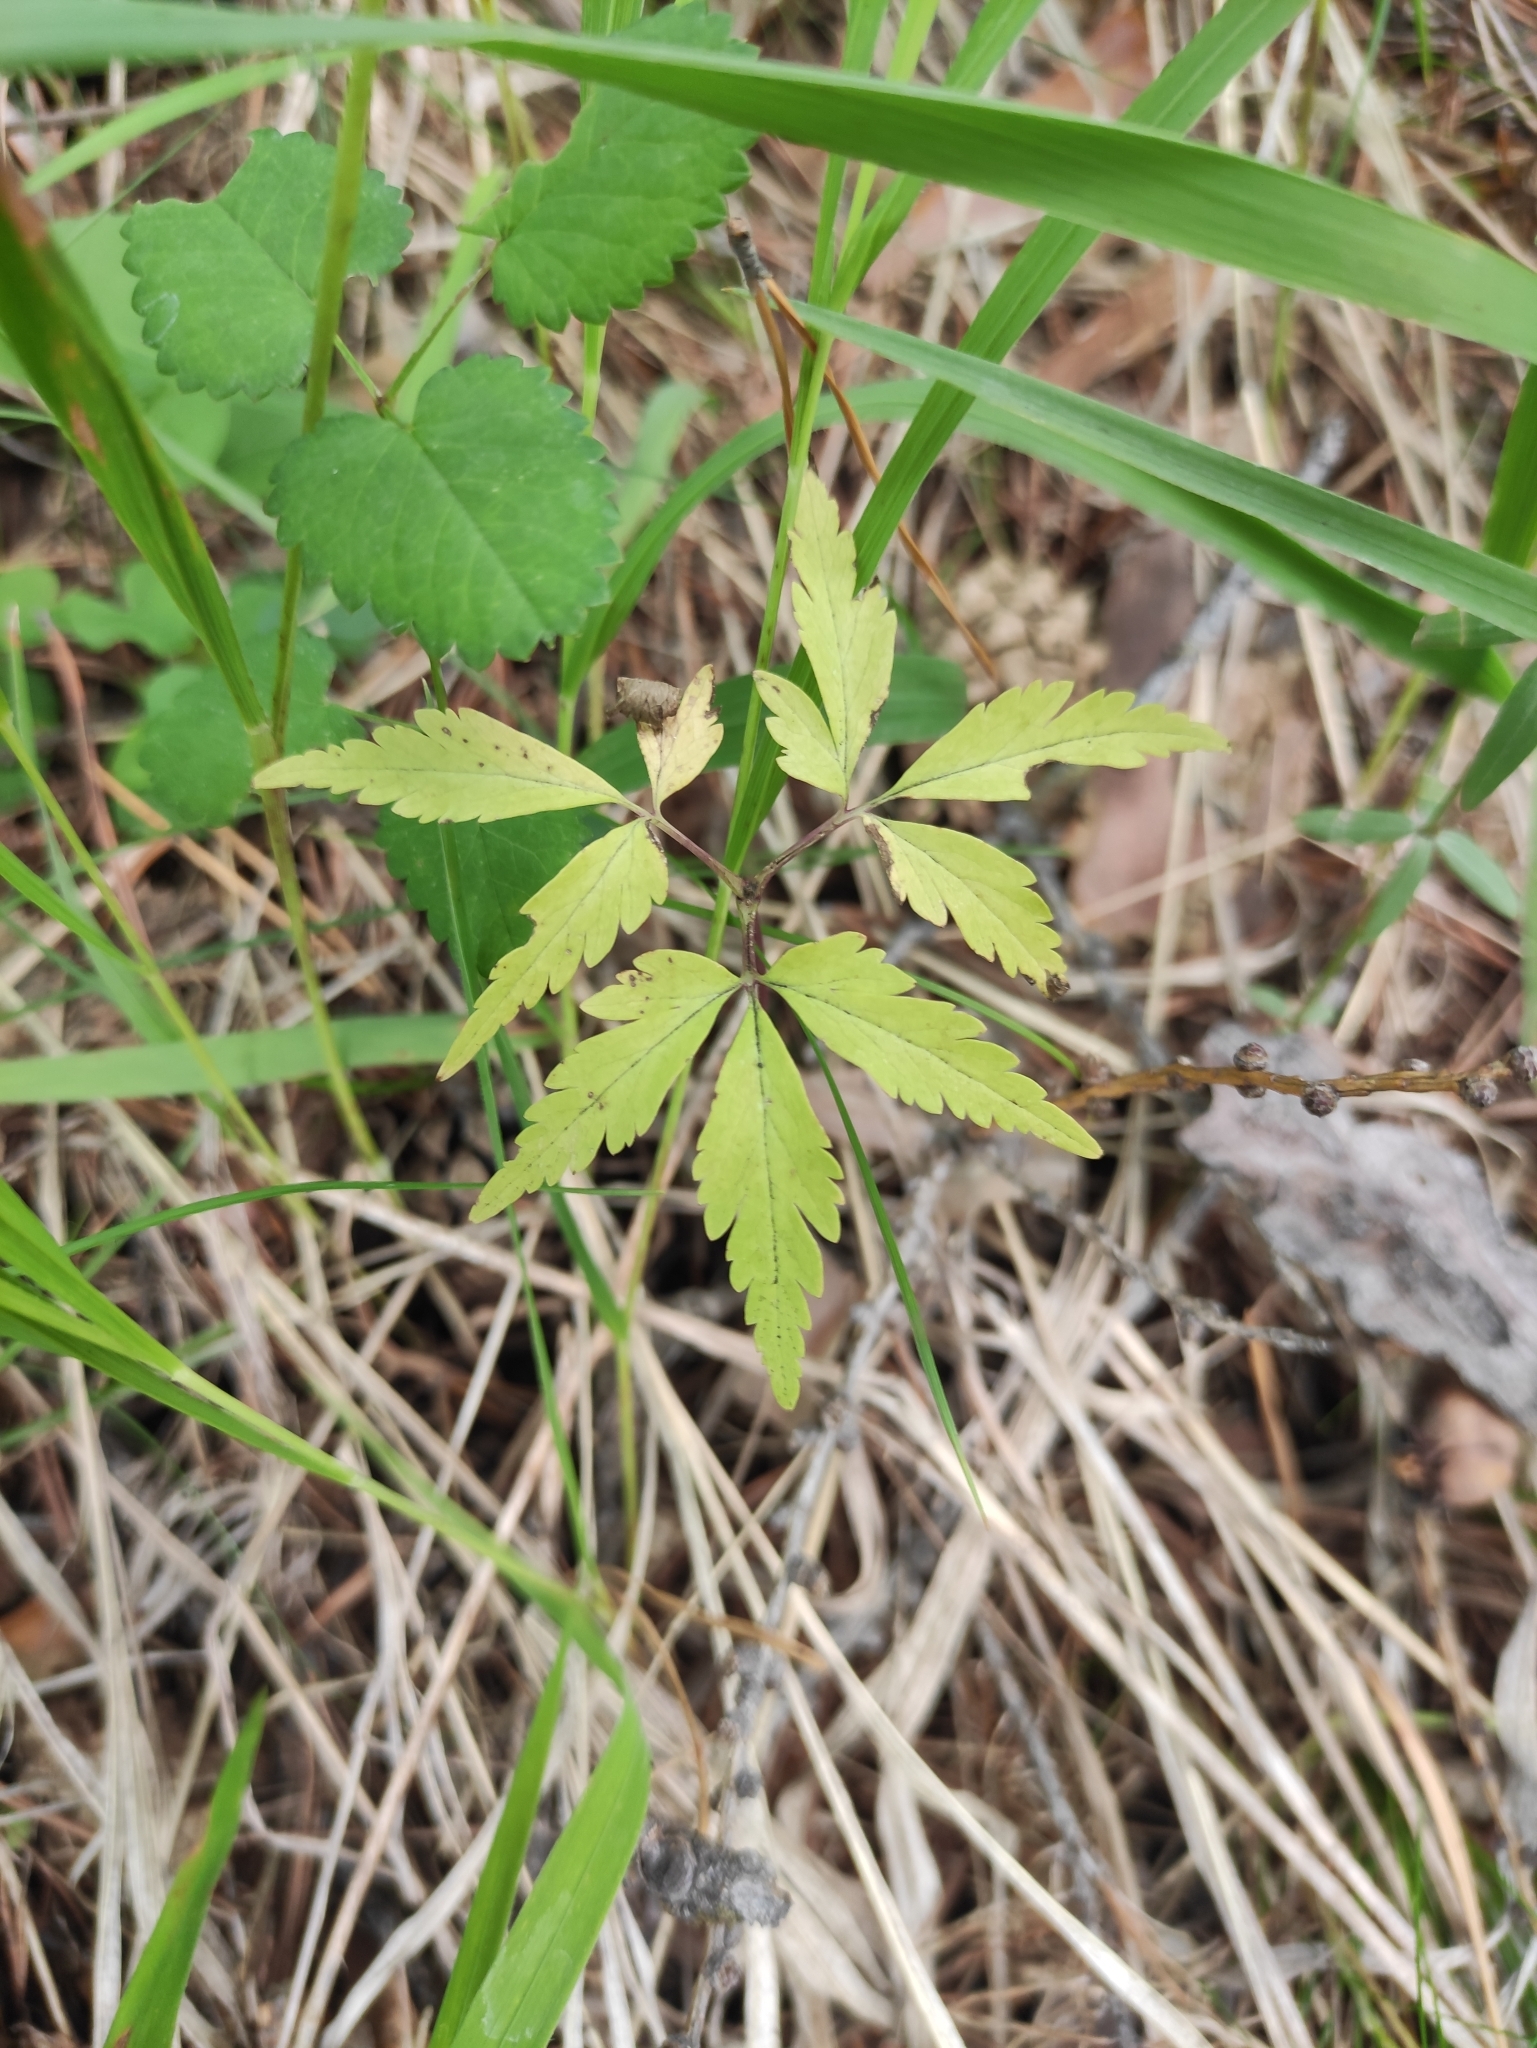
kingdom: Plantae
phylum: Tracheophyta
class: Magnoliopsida
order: Ranunculales
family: Ranunculaceae
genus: Anemone
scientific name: Anemone reflexa
